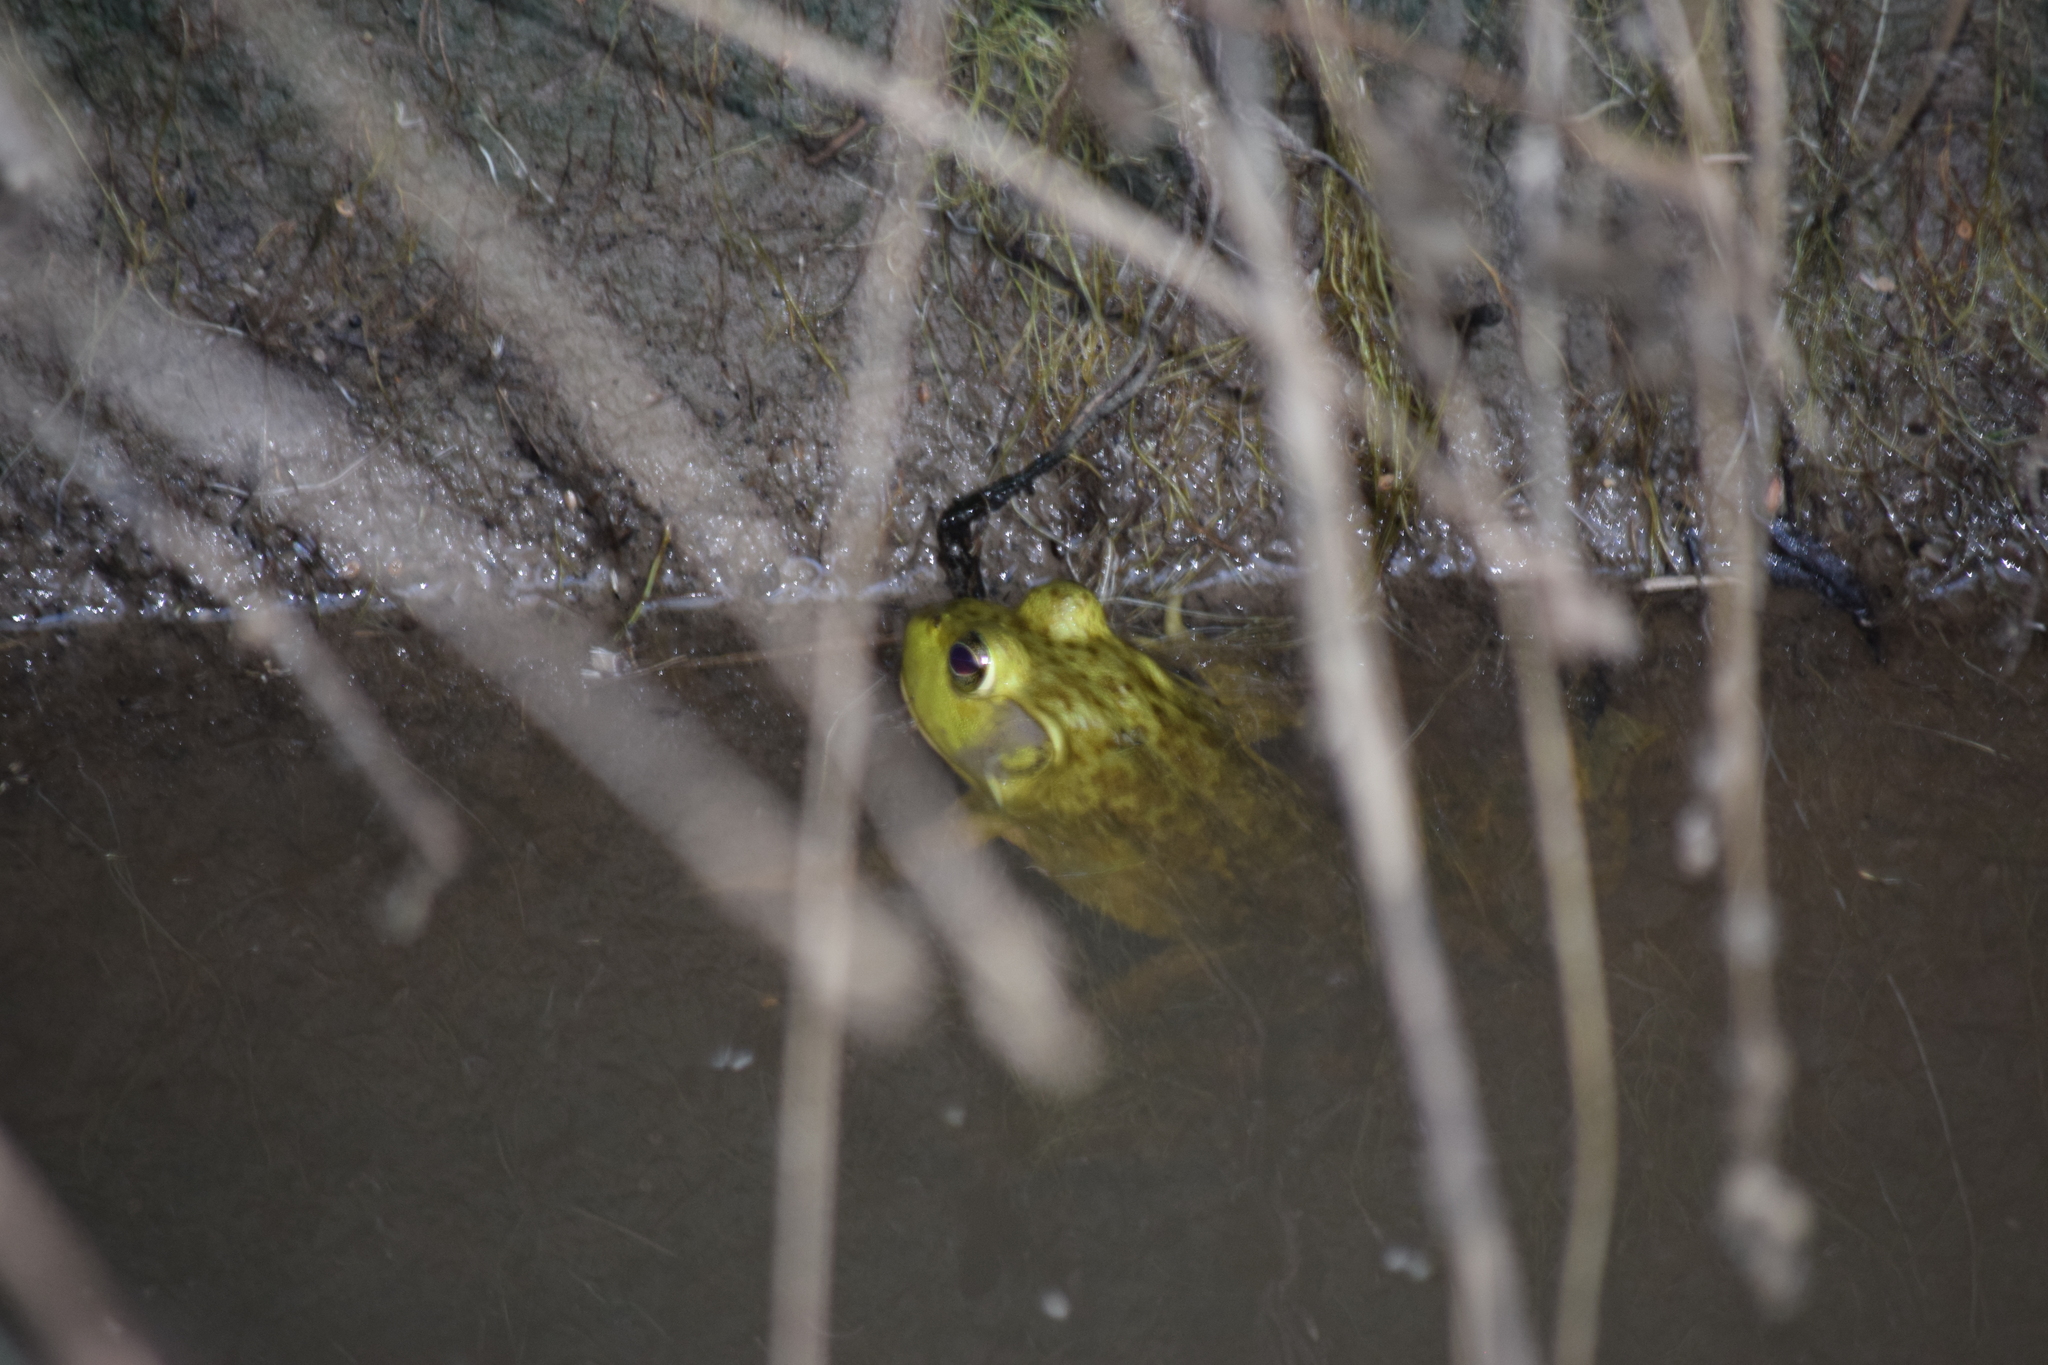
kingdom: Animalia
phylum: Chordata
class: Amphibia
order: Anura
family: Ranidae
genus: Lithobates
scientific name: Lithobates catesbeianus
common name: American bullfrog
